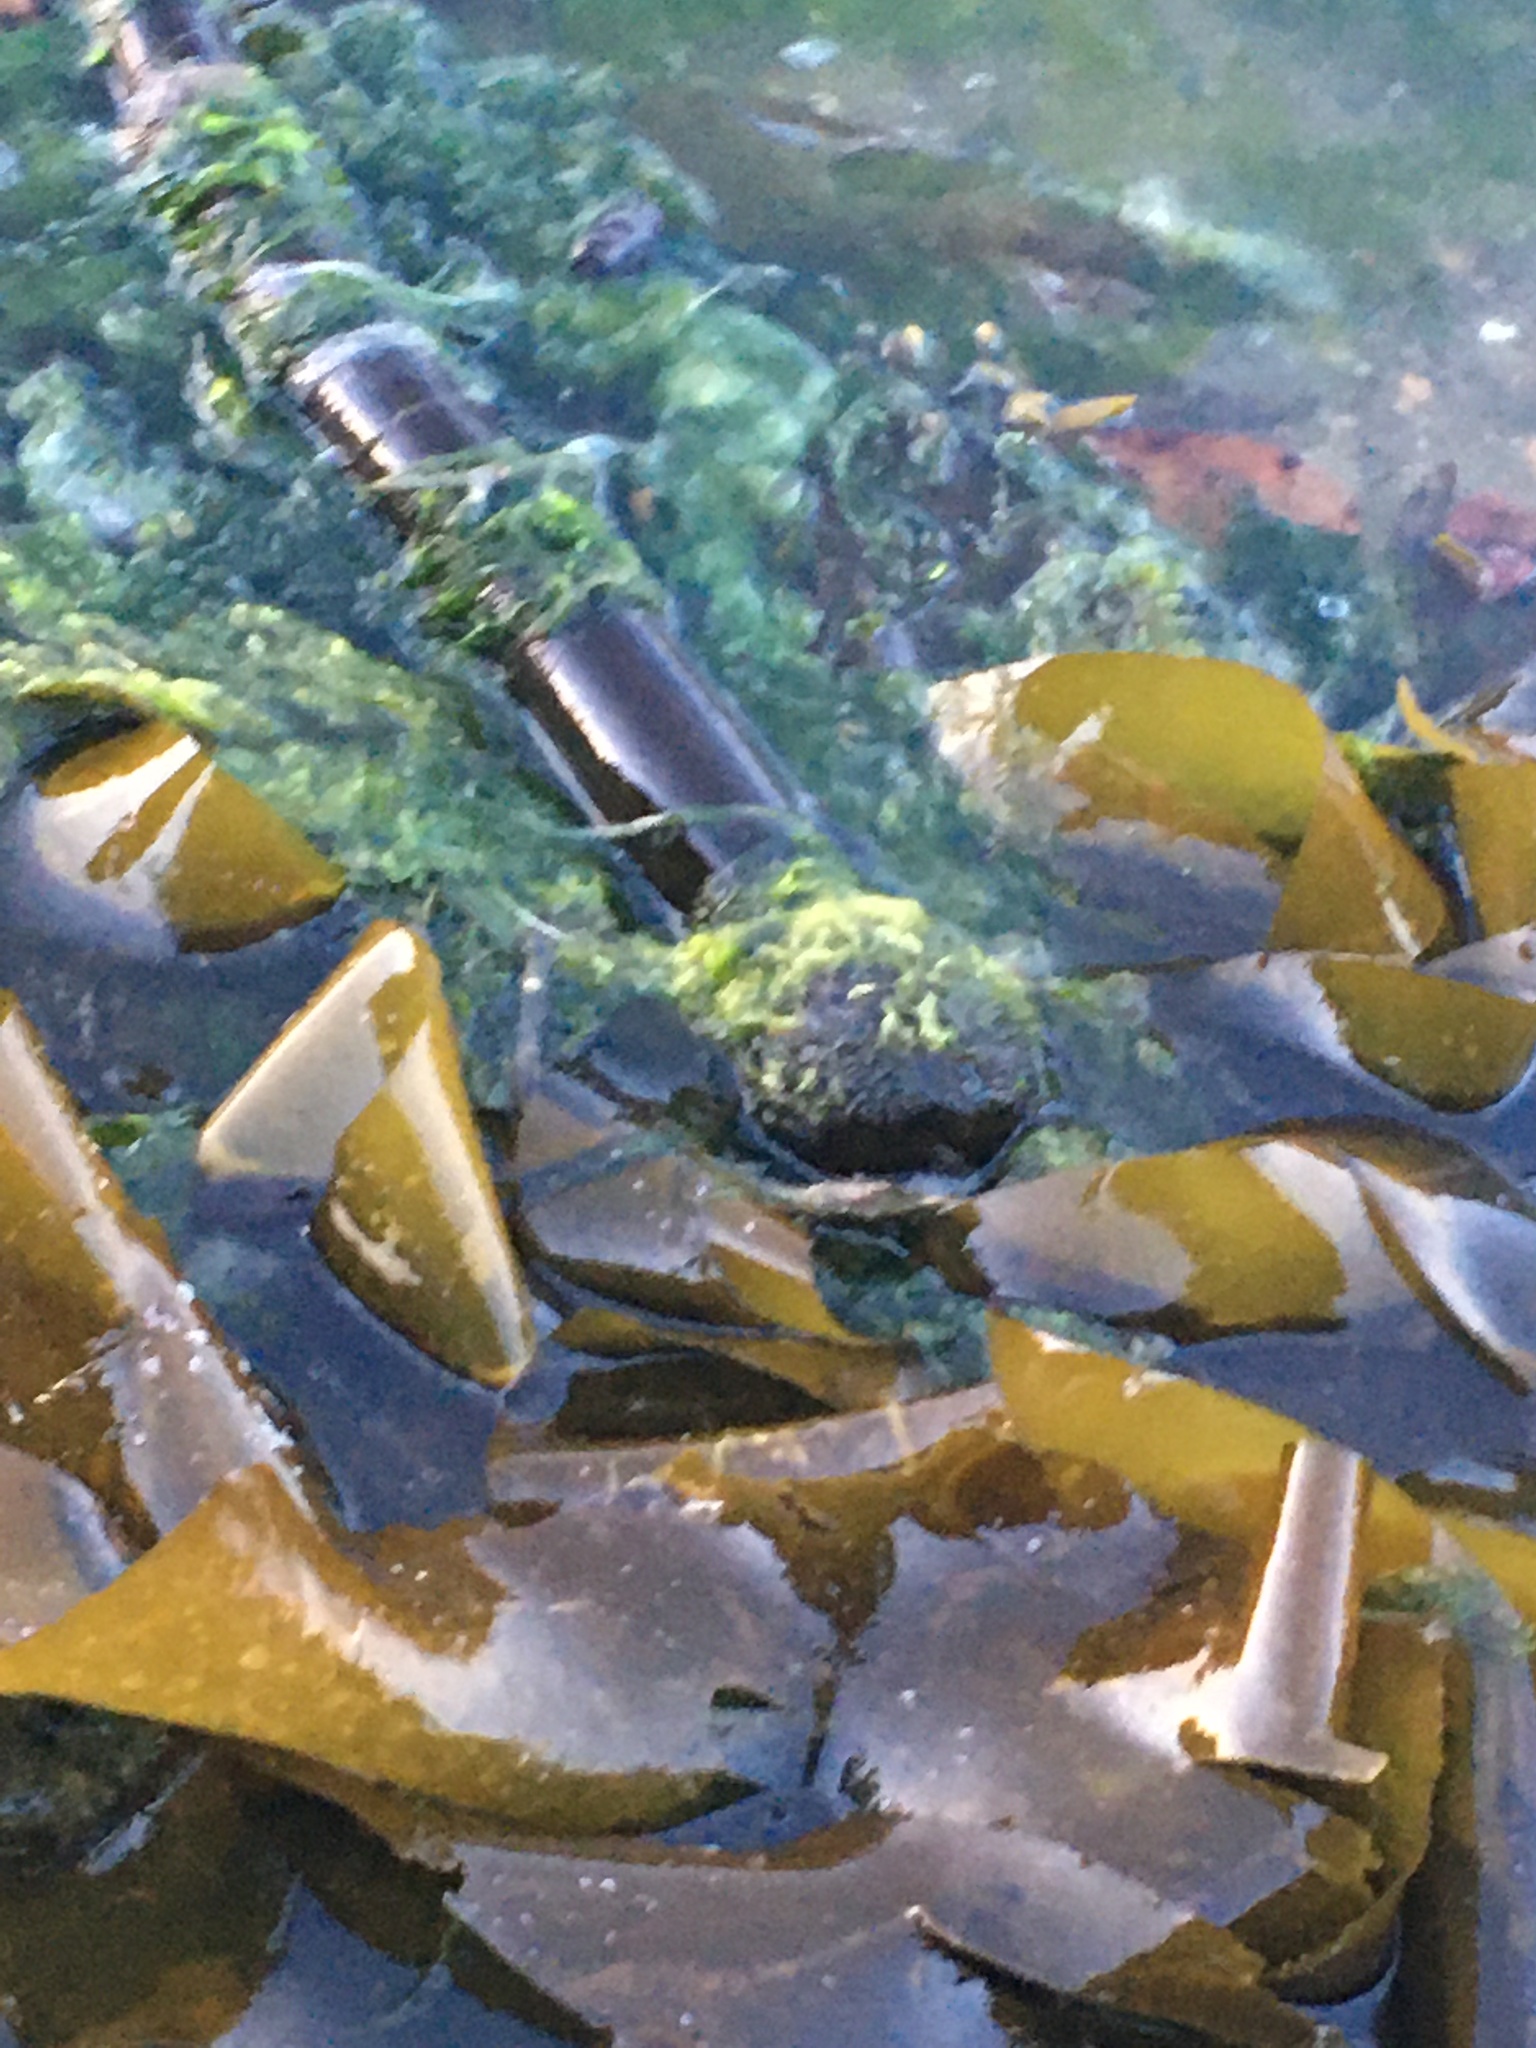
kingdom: Chromista
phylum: Ochrophyta
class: Phaeophyceae
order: Laminariales
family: Laminariaceae
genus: Nereocystis
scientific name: Nereocystis luetkeana
